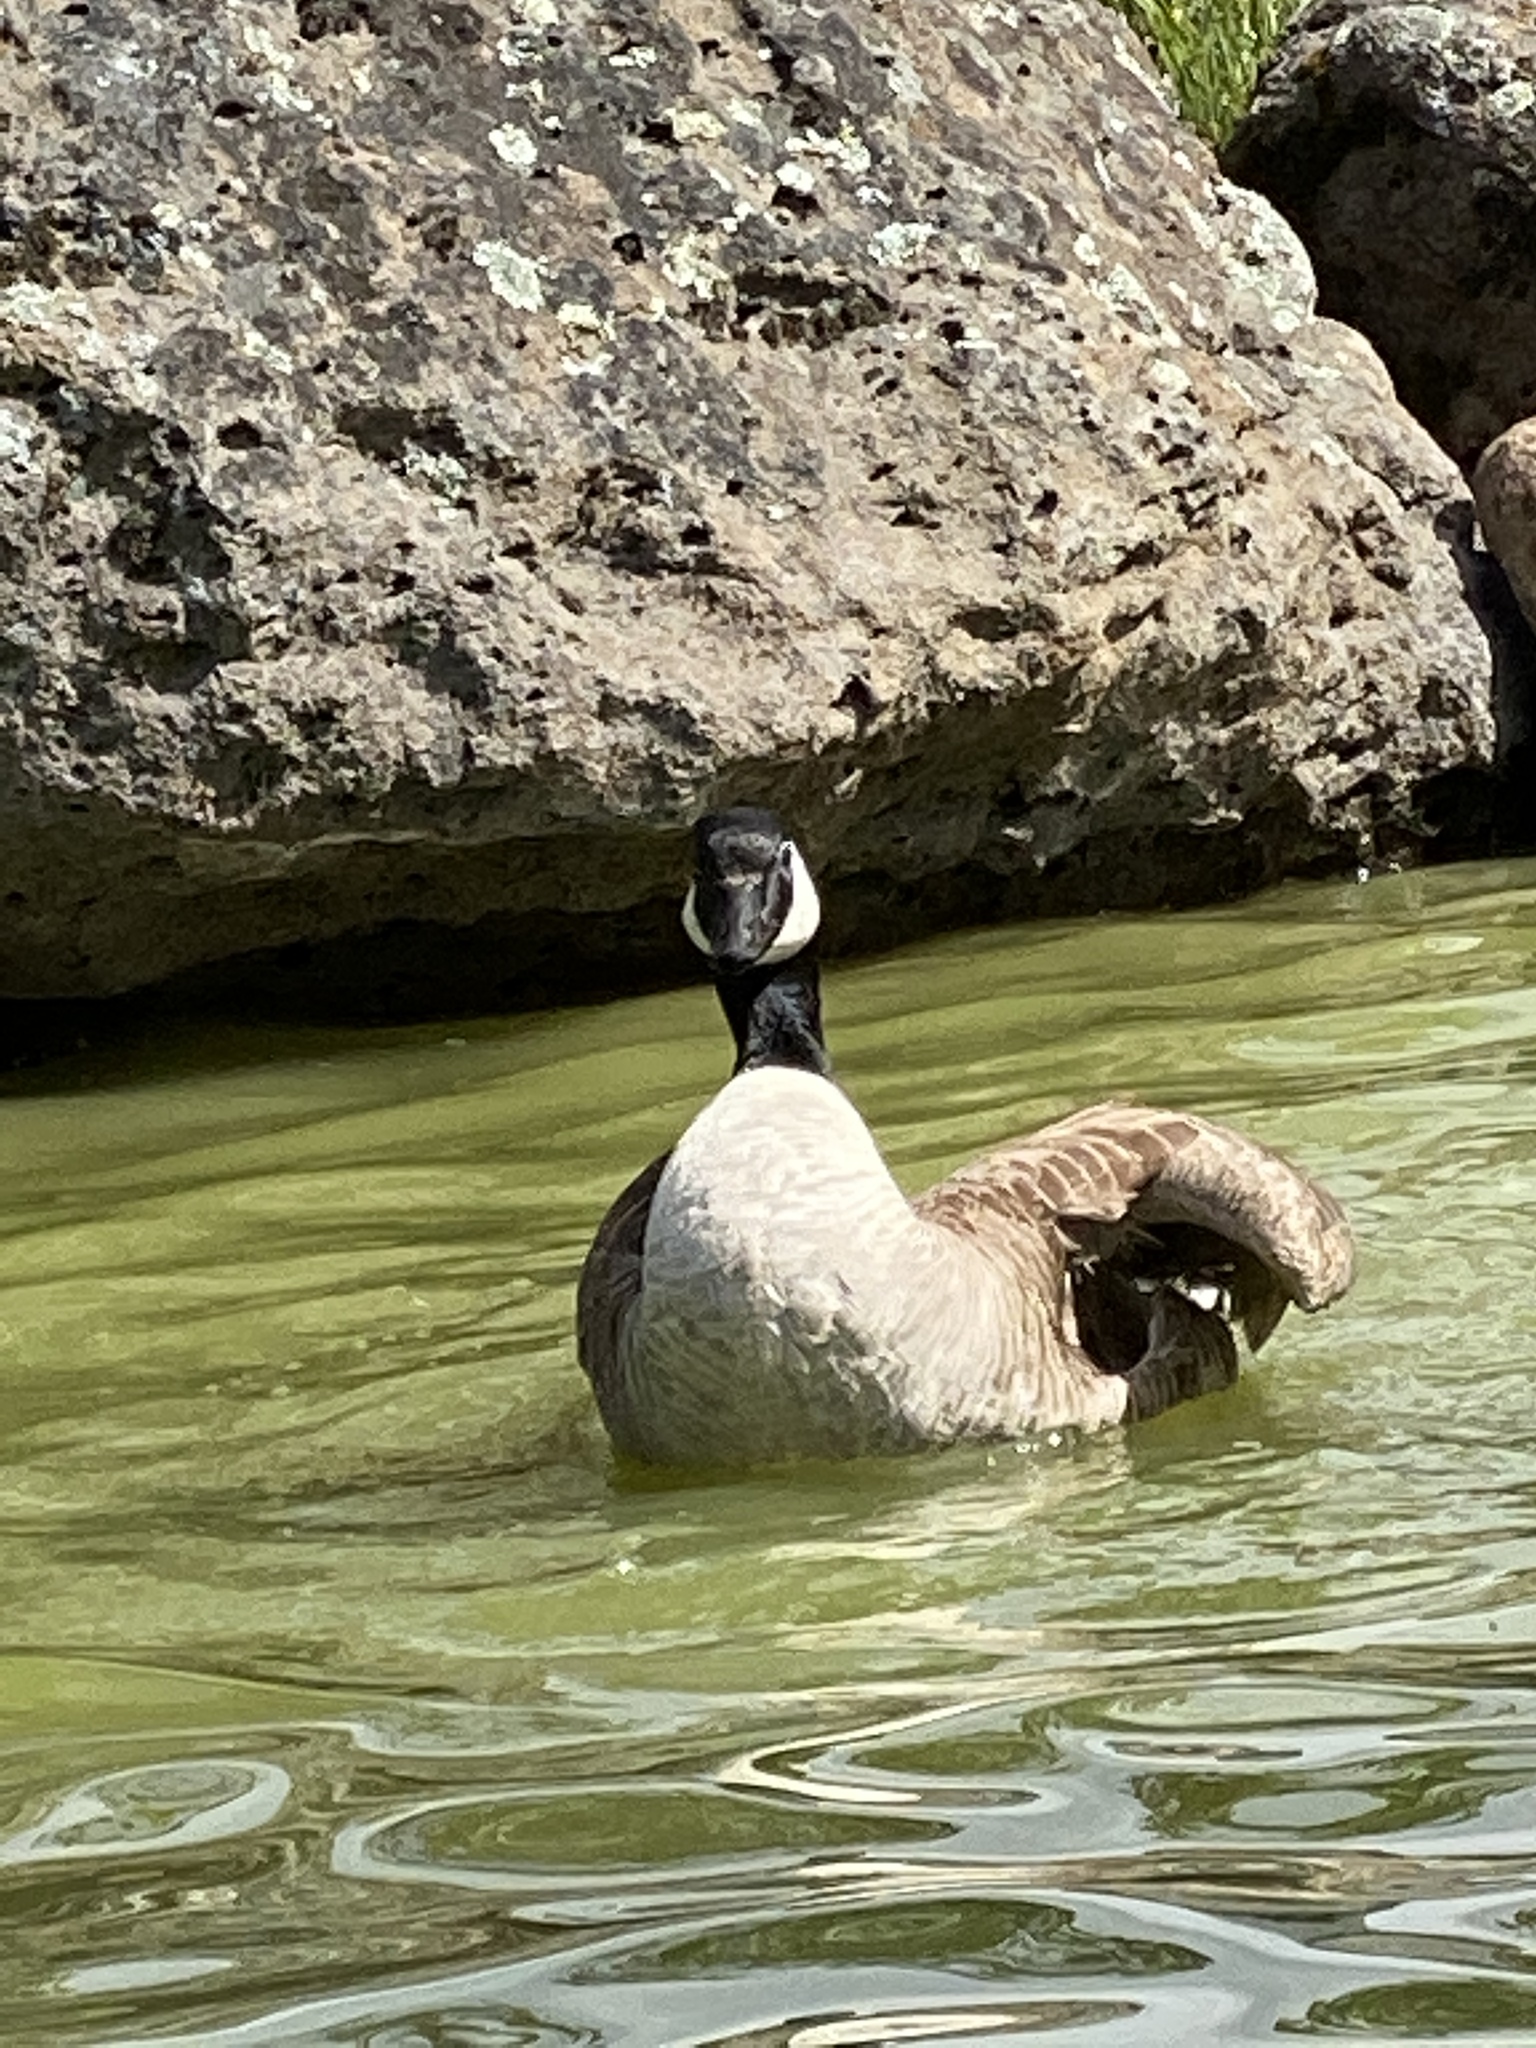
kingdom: Animalia
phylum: Chordata
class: Aves
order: Anseriformes
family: Anatidae
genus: Branta
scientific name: Branta canadensis
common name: Canada goose
